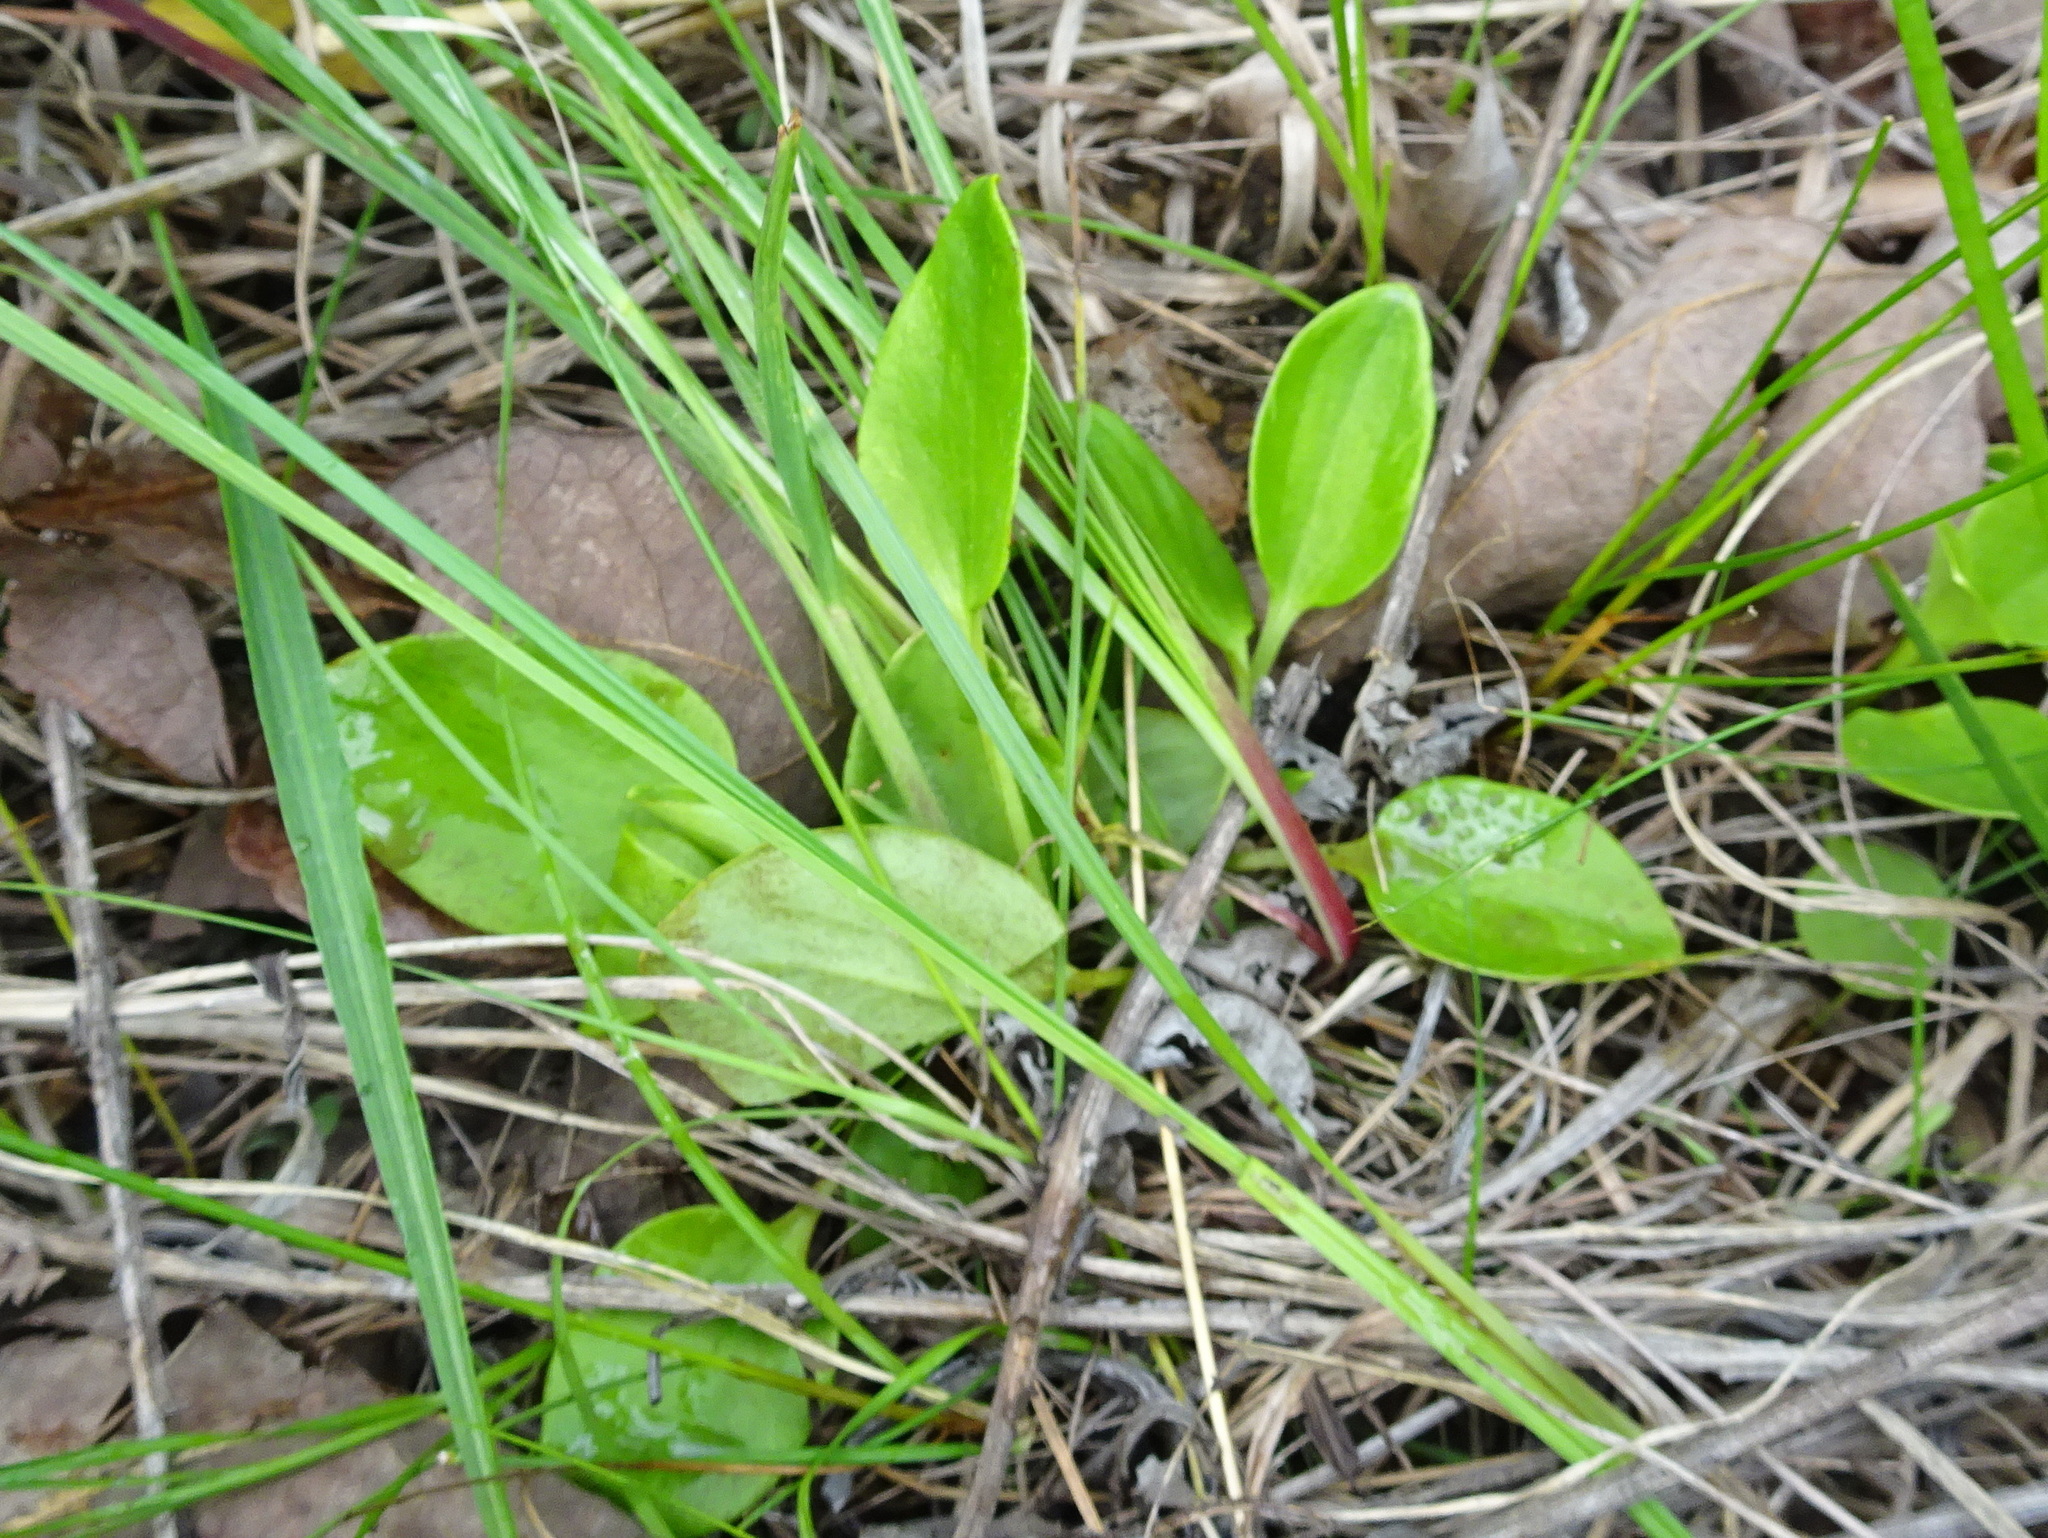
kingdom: Plantae
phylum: Tracheophyta
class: Magnoliopsida
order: Celastrales
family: Parnassiaceae
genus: Parnassia
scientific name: Parnassia grandifolia
